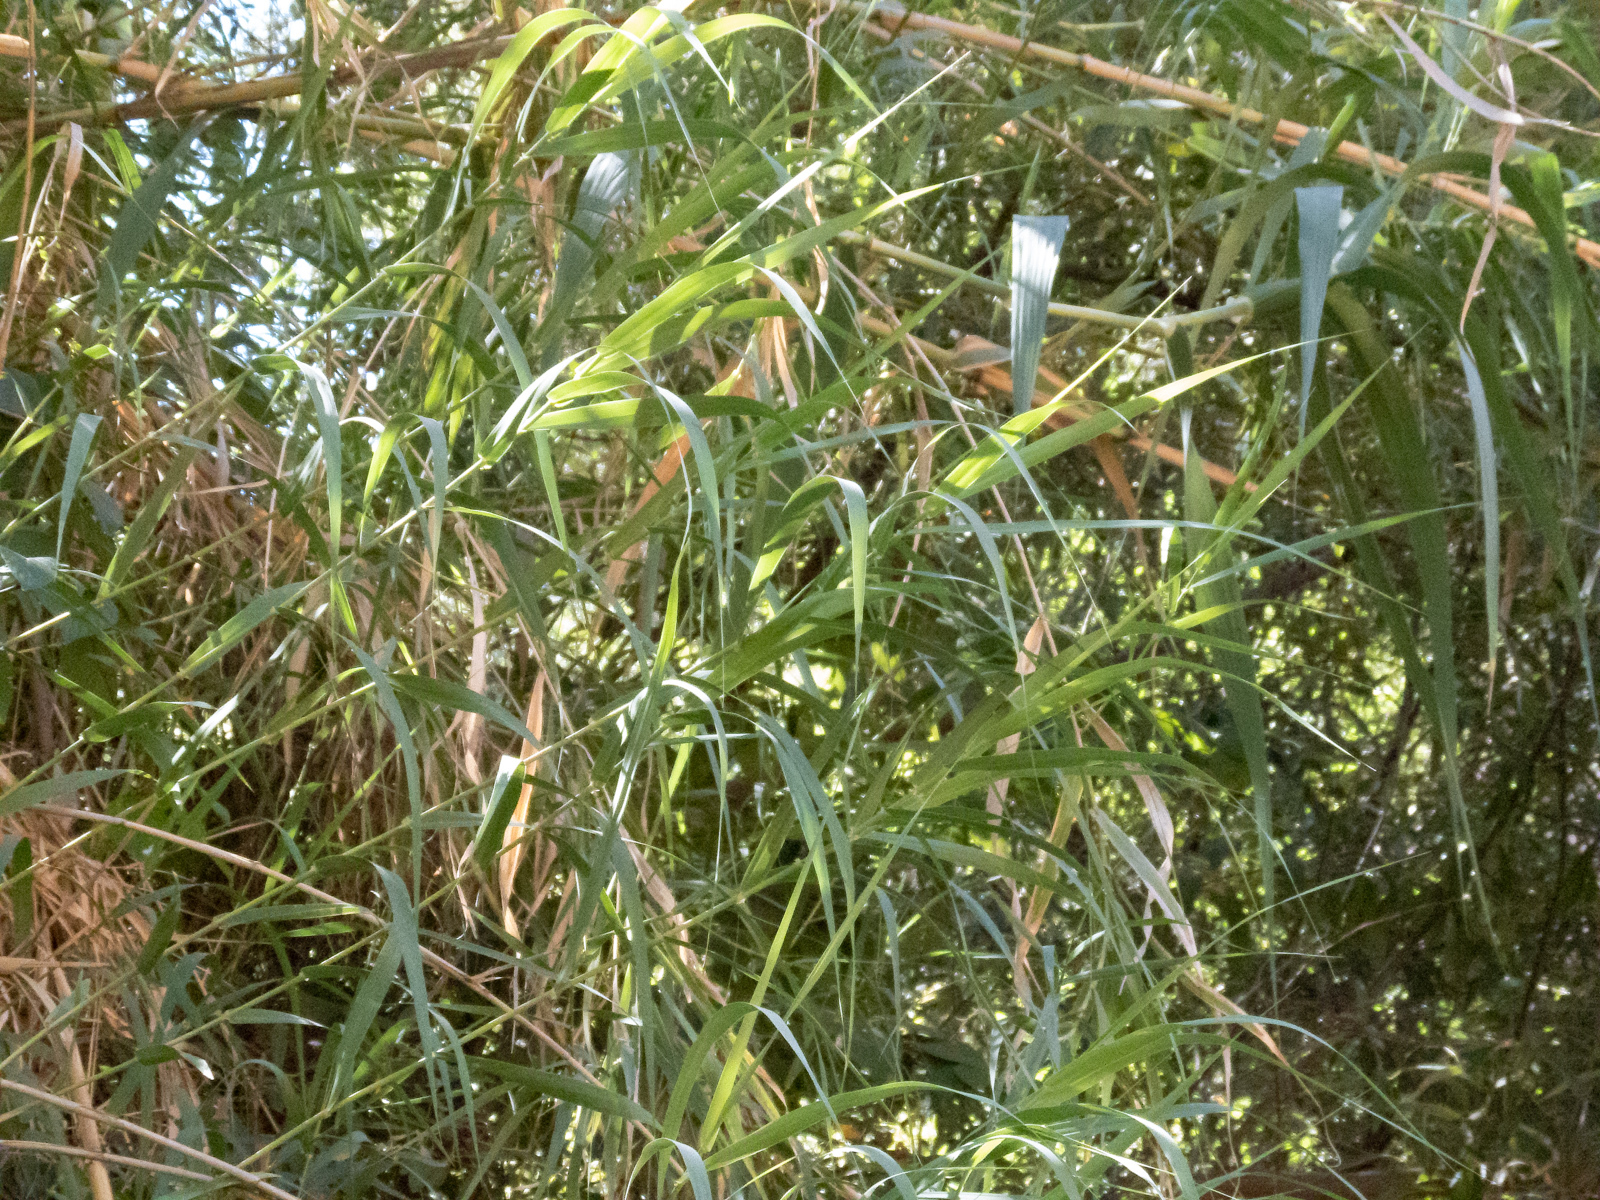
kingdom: Plantae
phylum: Tracheophyta
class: Liliopsida
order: Poales
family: Poaceae
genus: Arundo
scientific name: Arundo donax
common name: Giant reed
